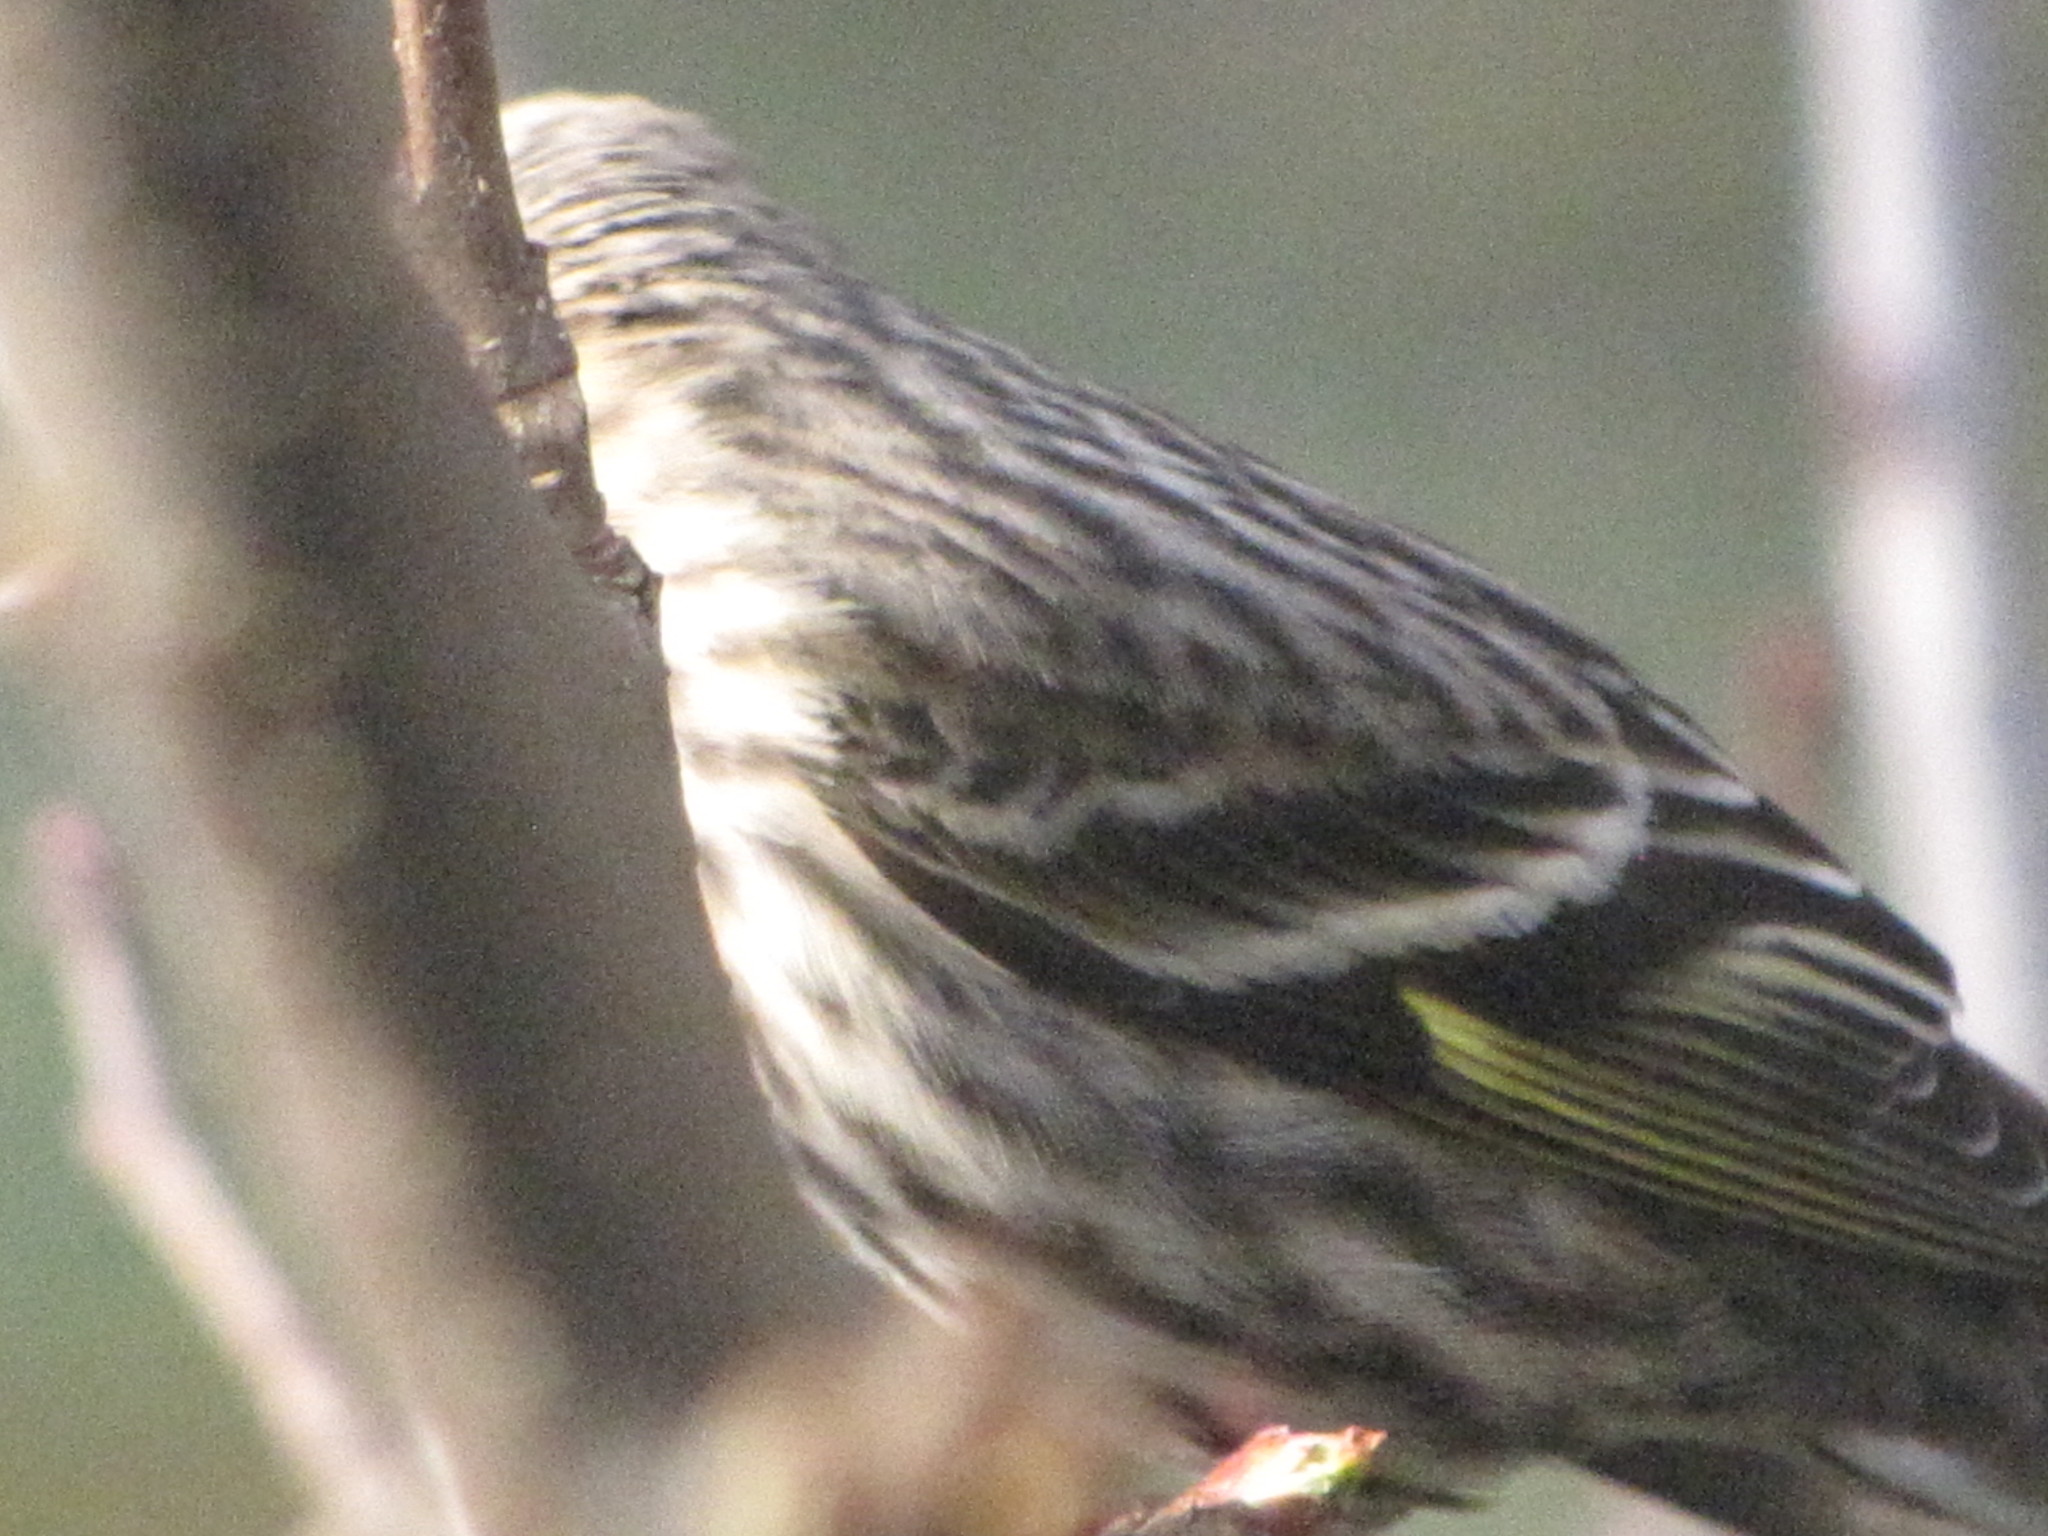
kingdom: Animalia
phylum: Chordata
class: Aves
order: Passeriformes
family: Fringillidae
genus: Spinus
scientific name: Spinus pinus
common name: Pine siskin
